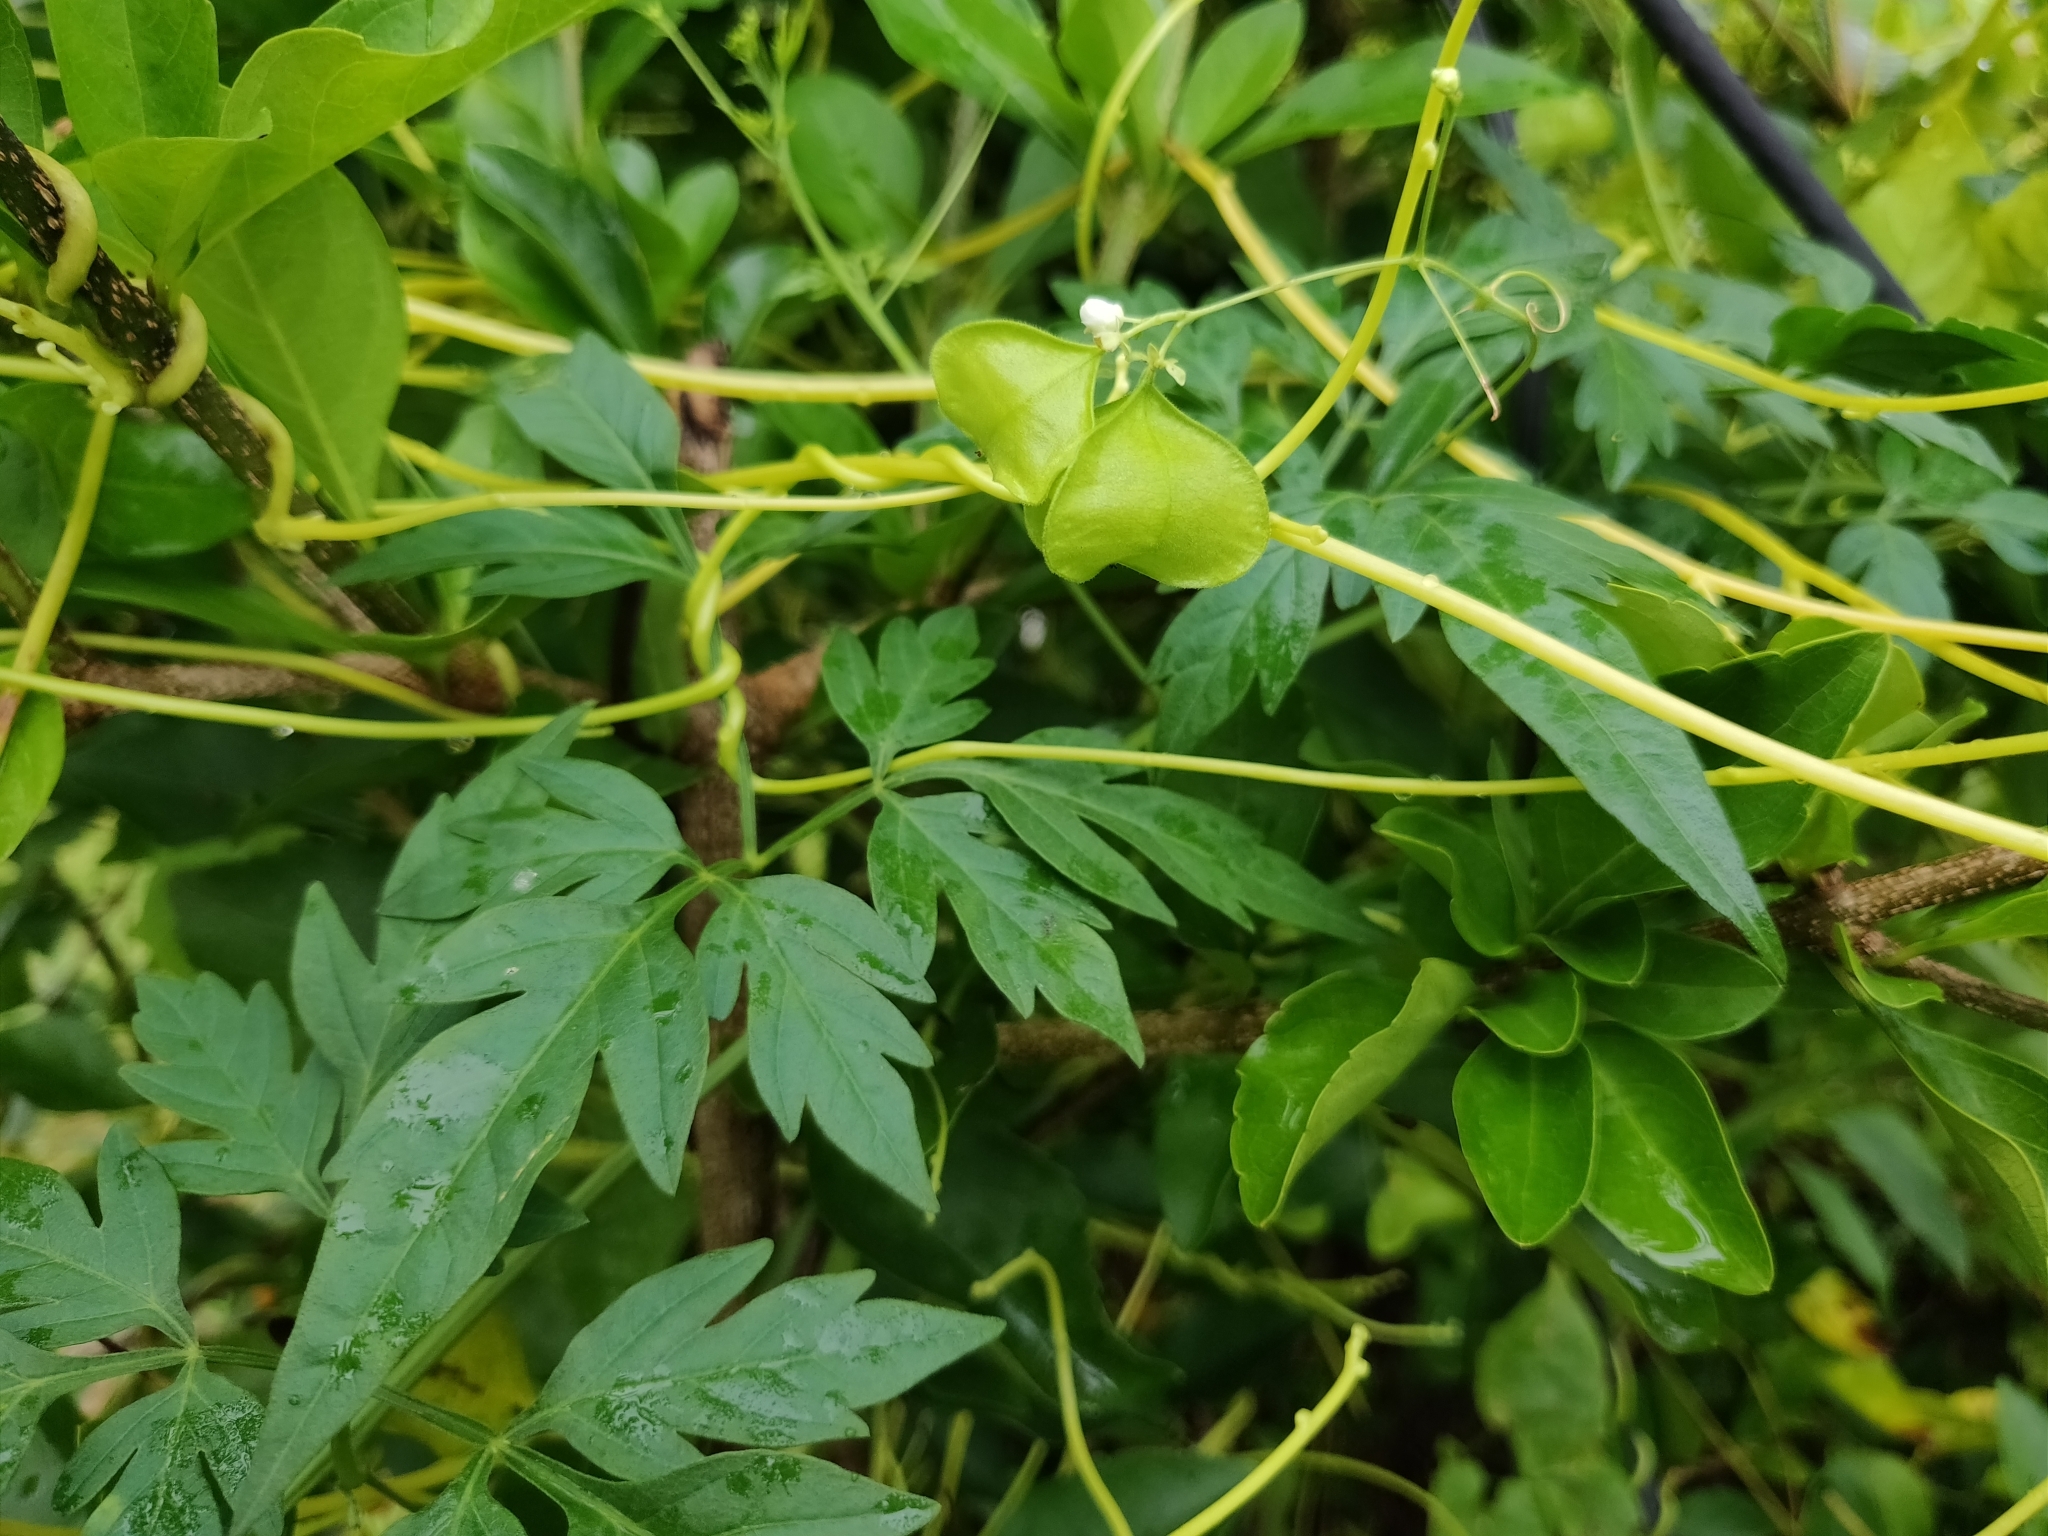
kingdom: Plantae
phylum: Tracheophyta
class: Magnoliopsida
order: Sapindales
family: Sapindaceae
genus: Cardiospermum
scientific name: Cardiospermum halicacabum
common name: Balloon vine
